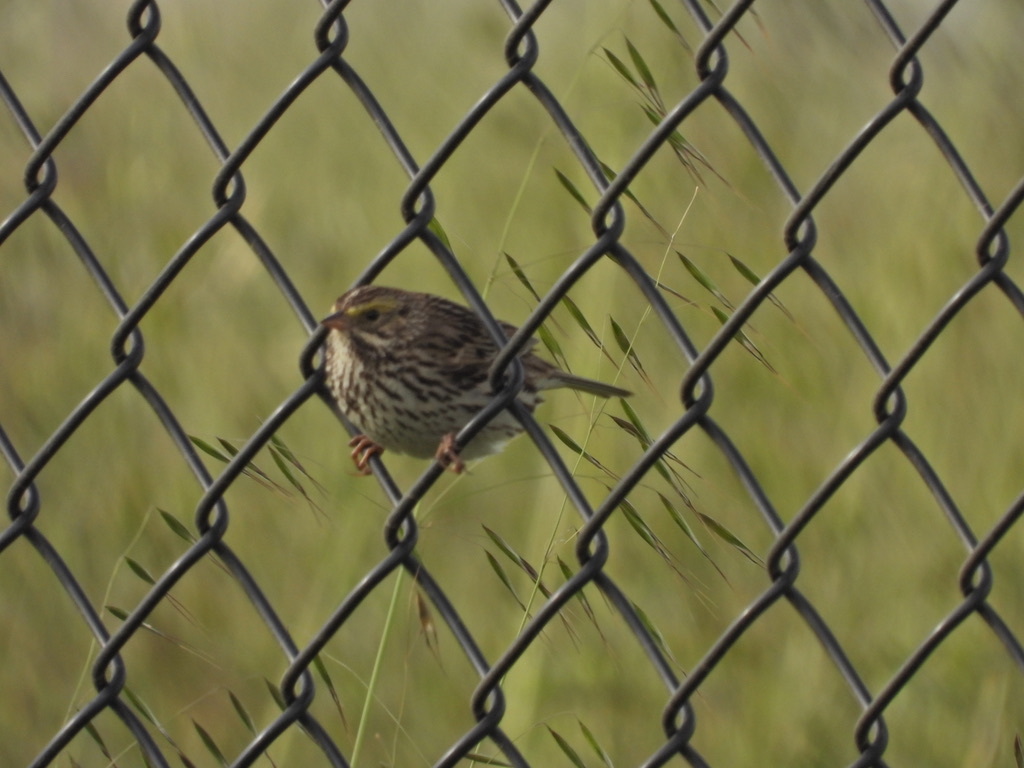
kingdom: Animalia
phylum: Chordata
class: Aves
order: Passeriformes
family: Passerellidae
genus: Passerculus
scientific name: Passerculus sandwichensis
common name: Savannah sparrow
